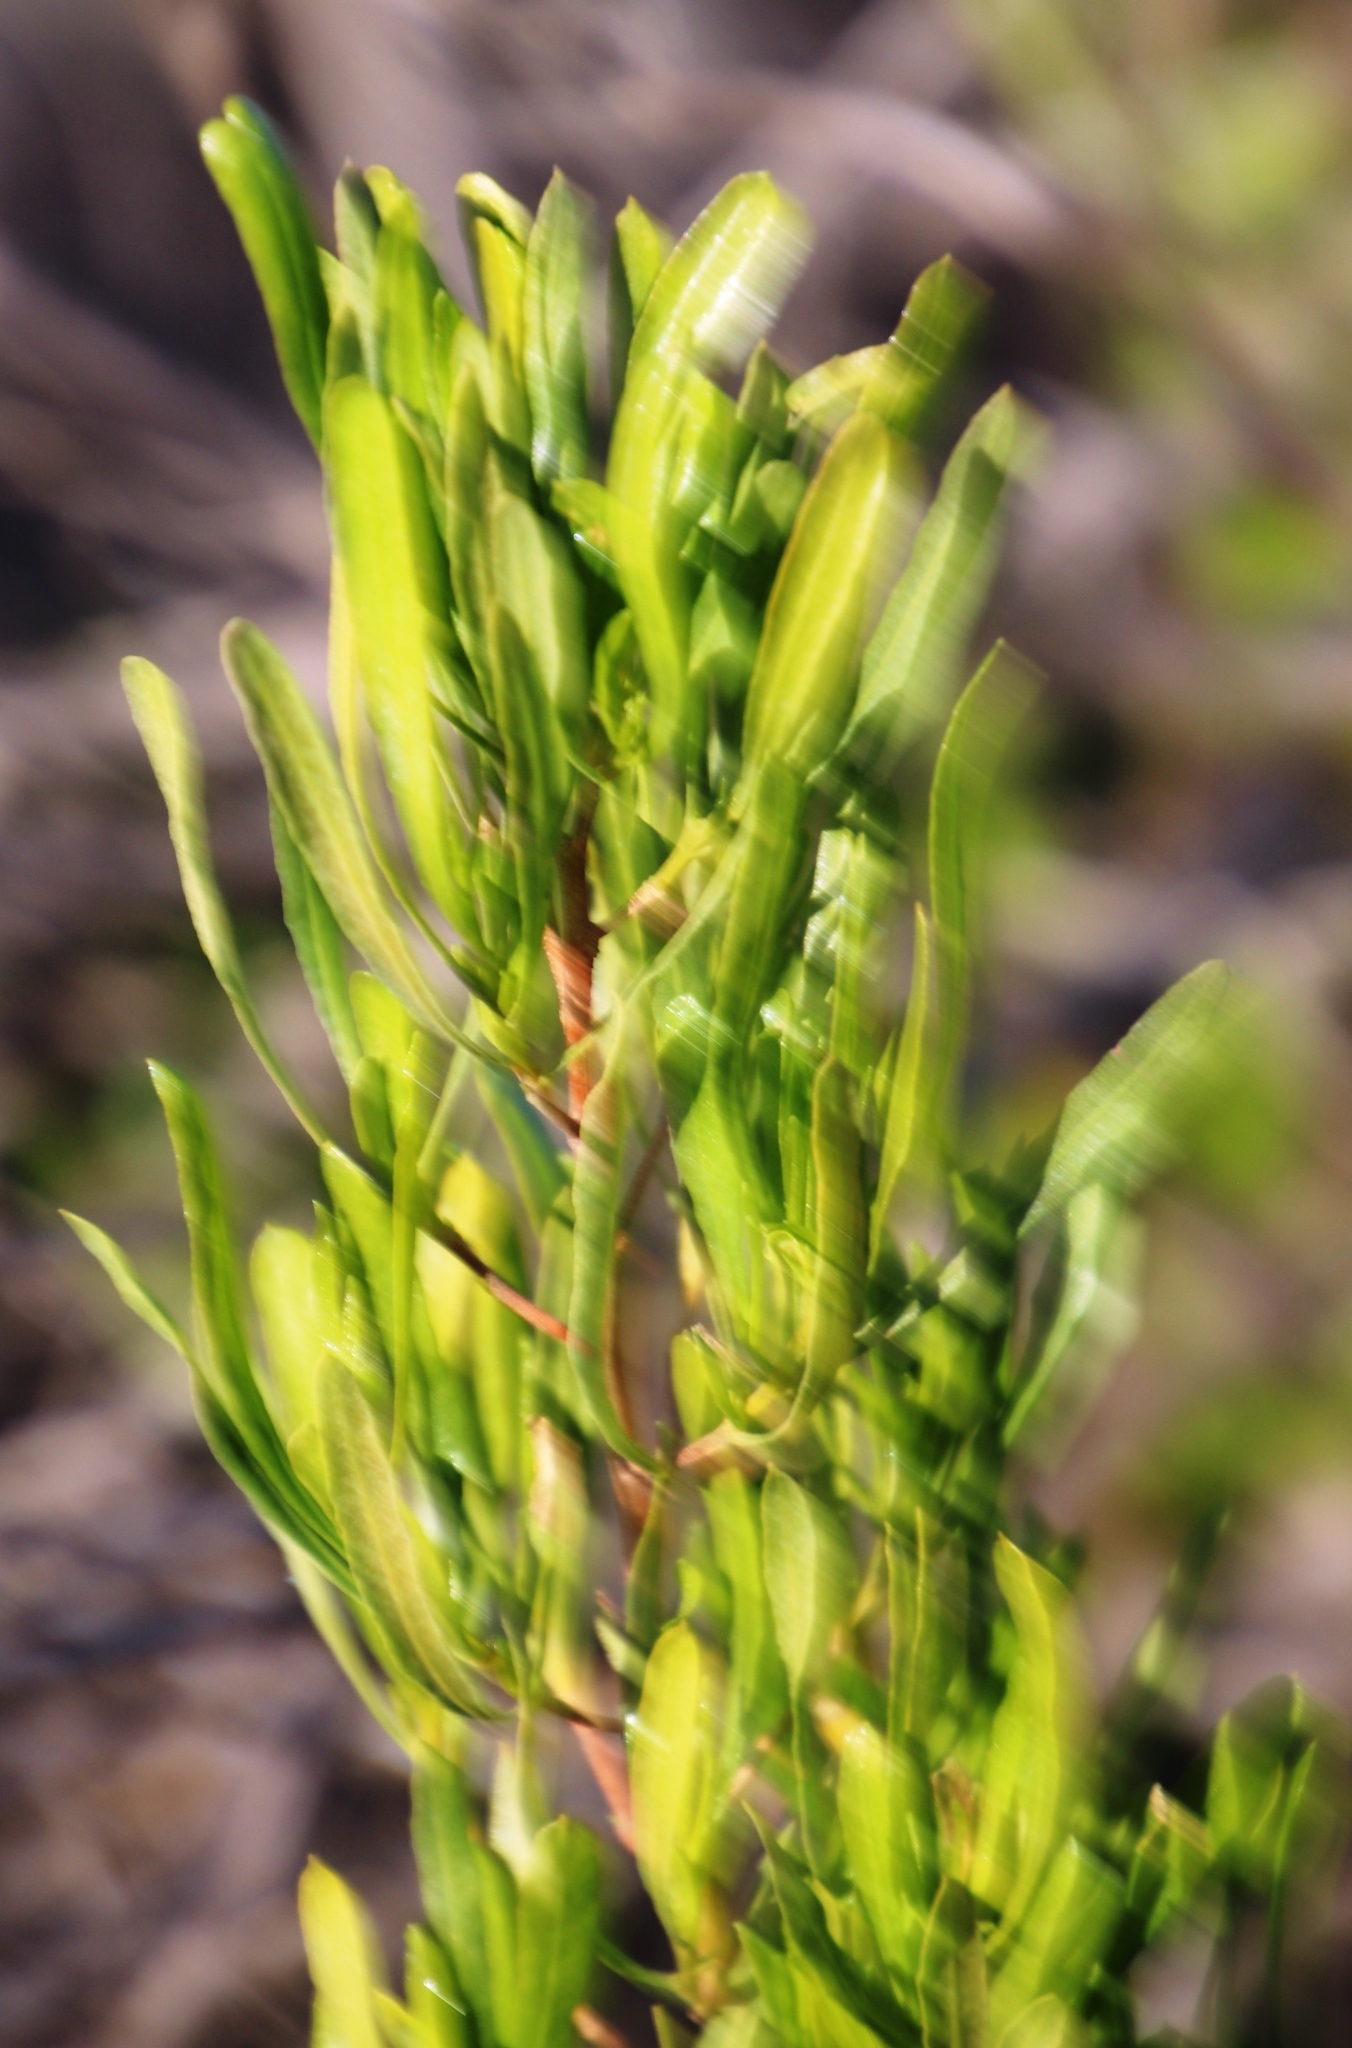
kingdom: Plantae
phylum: Tracheophyta
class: Magnoliopsida
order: Sapindales
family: Sapindaceae
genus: Dodonaea
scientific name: Dodonaea viscosa
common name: Hopbush
